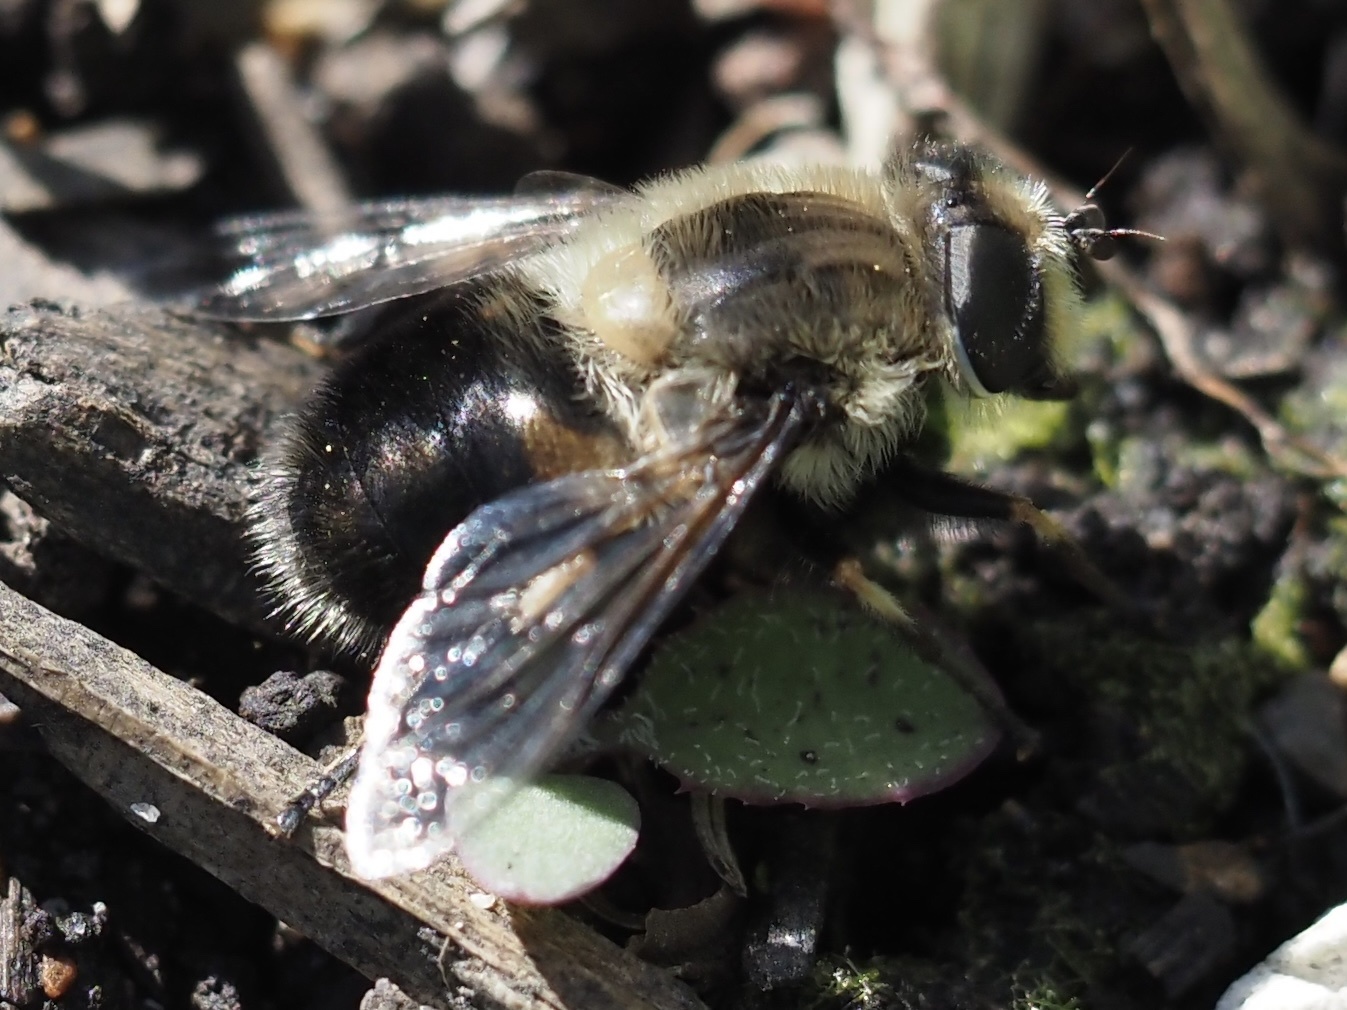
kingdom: Animalia
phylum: Arthropoda
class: Insecta
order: Diptera
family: Syrphidae
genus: Eristalis
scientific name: Eristalis anthophorina
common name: Orange-spotted drone fly
